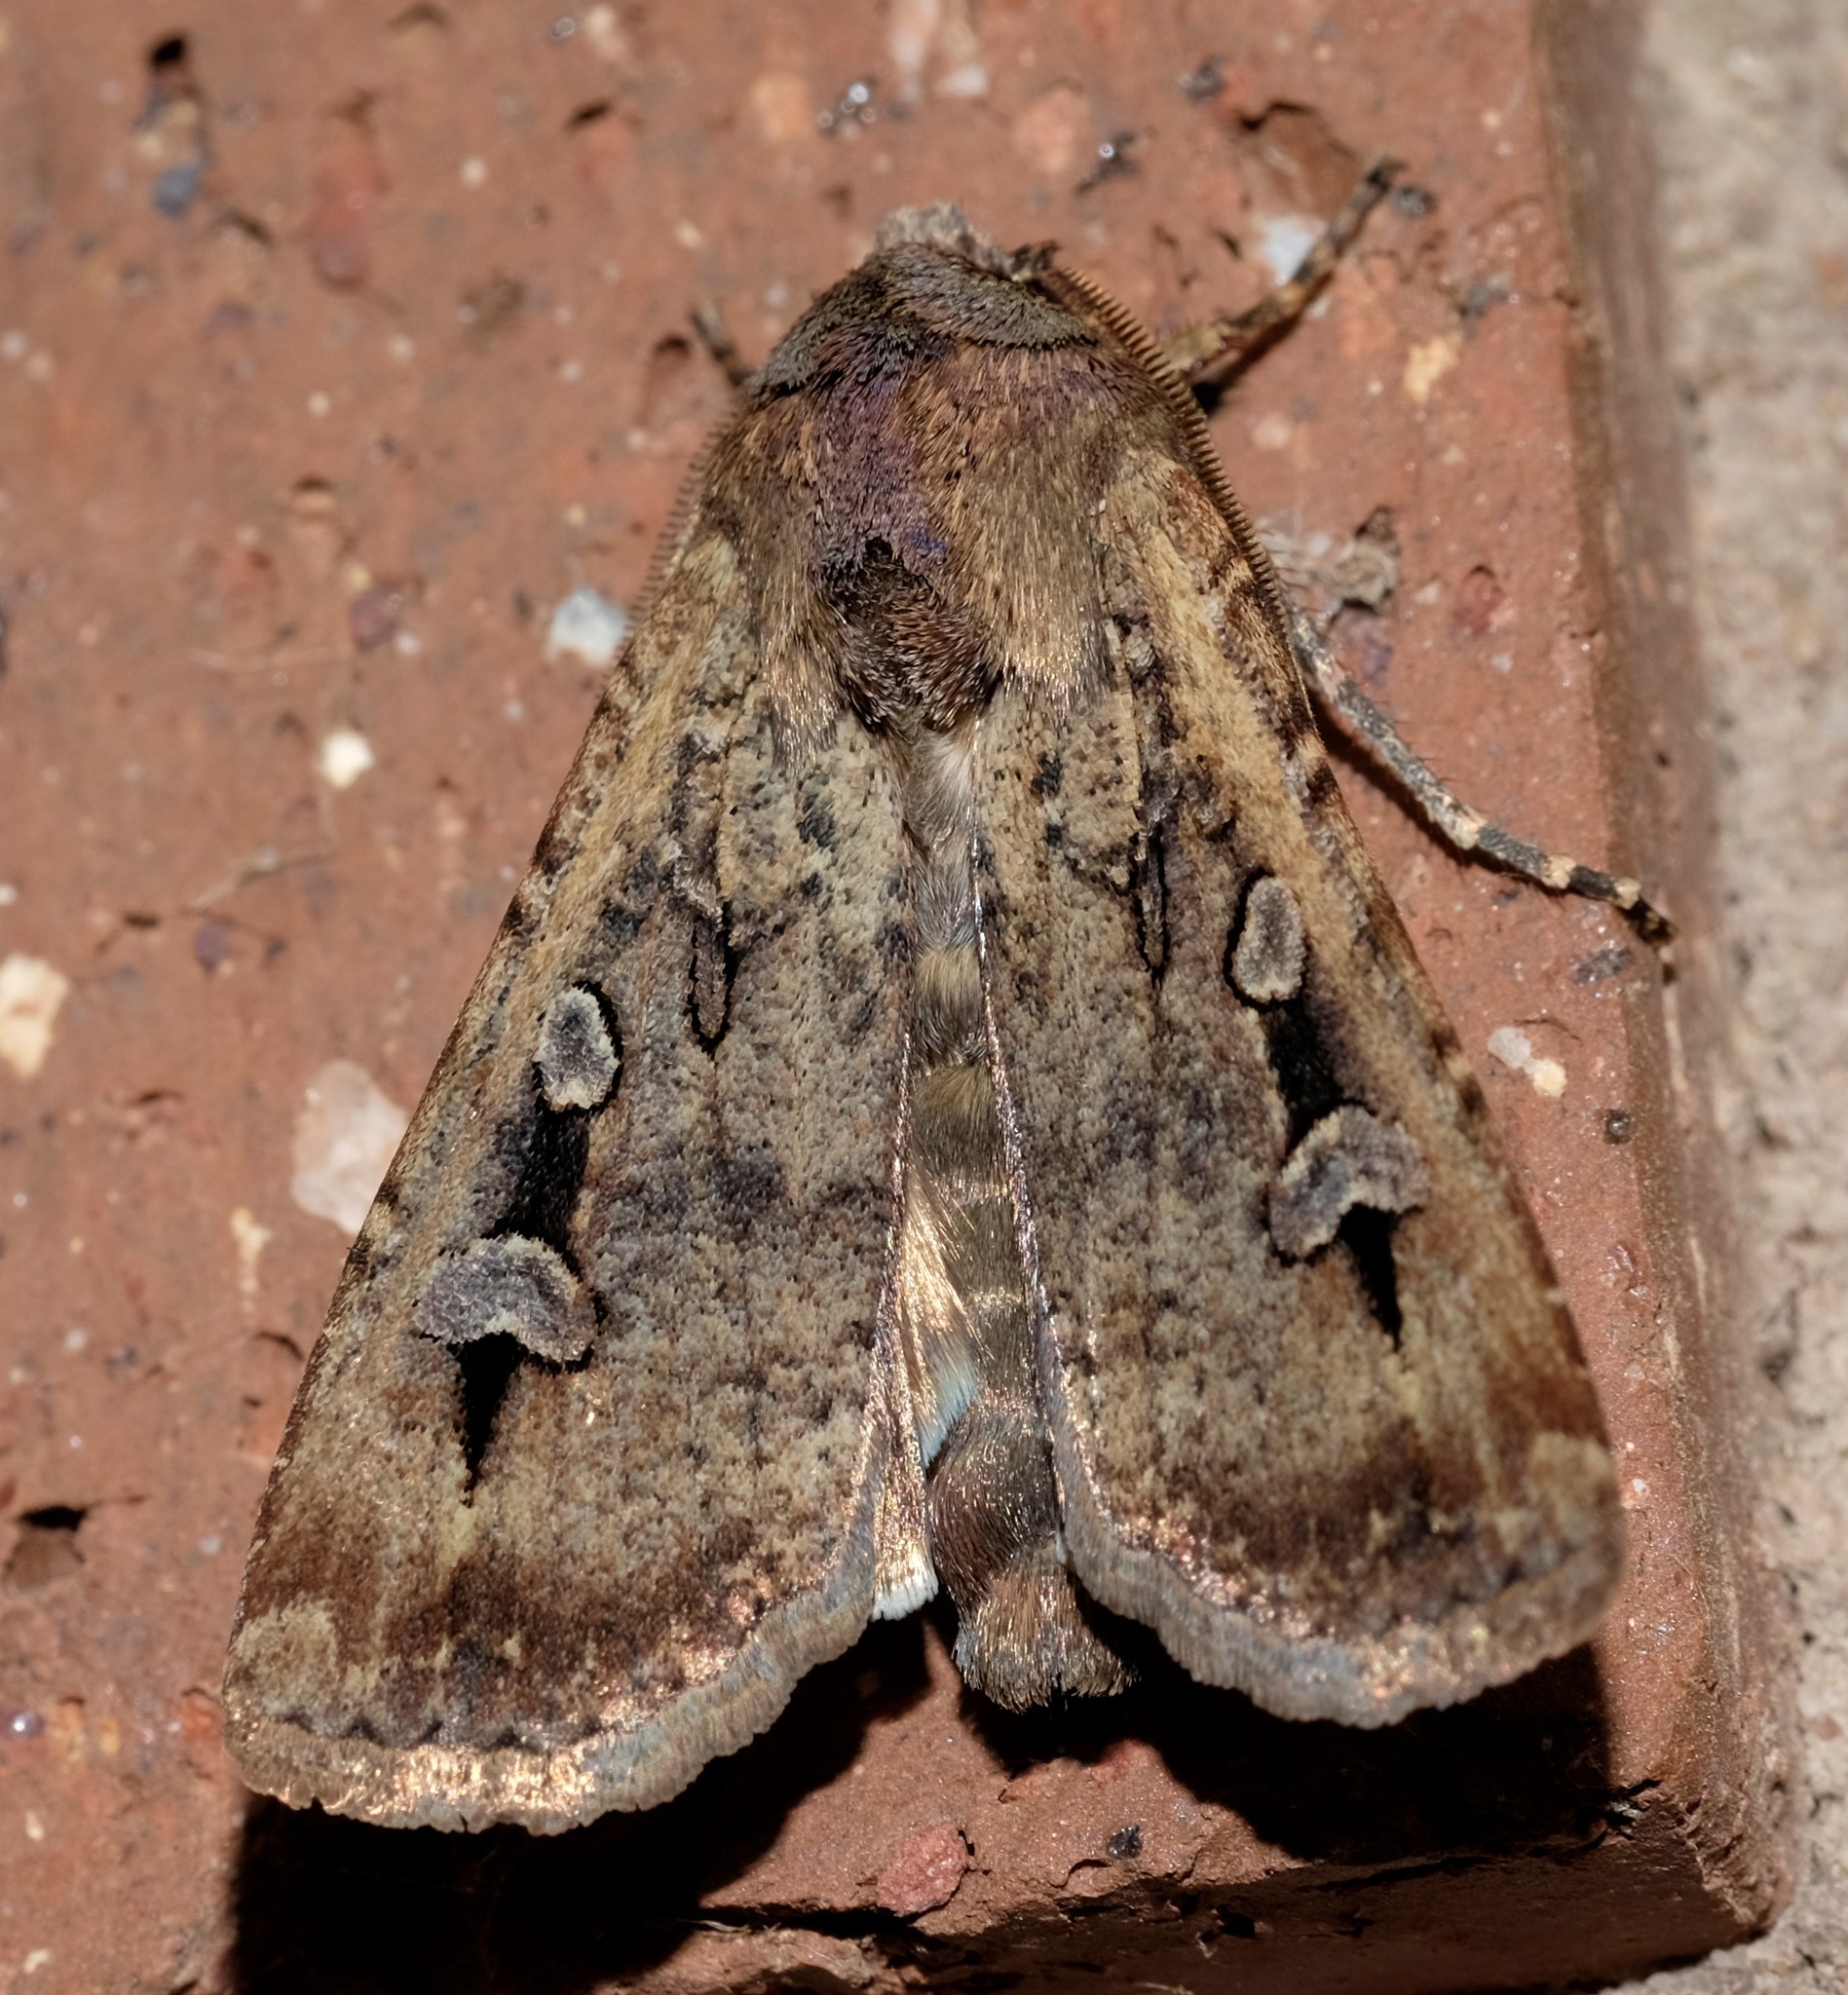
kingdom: Animalia
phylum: Arthropoda
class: Insecta
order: Lepidoptera
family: Noctuidae
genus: Agrotis
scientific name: Agrotis infusa
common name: Bogong moth
